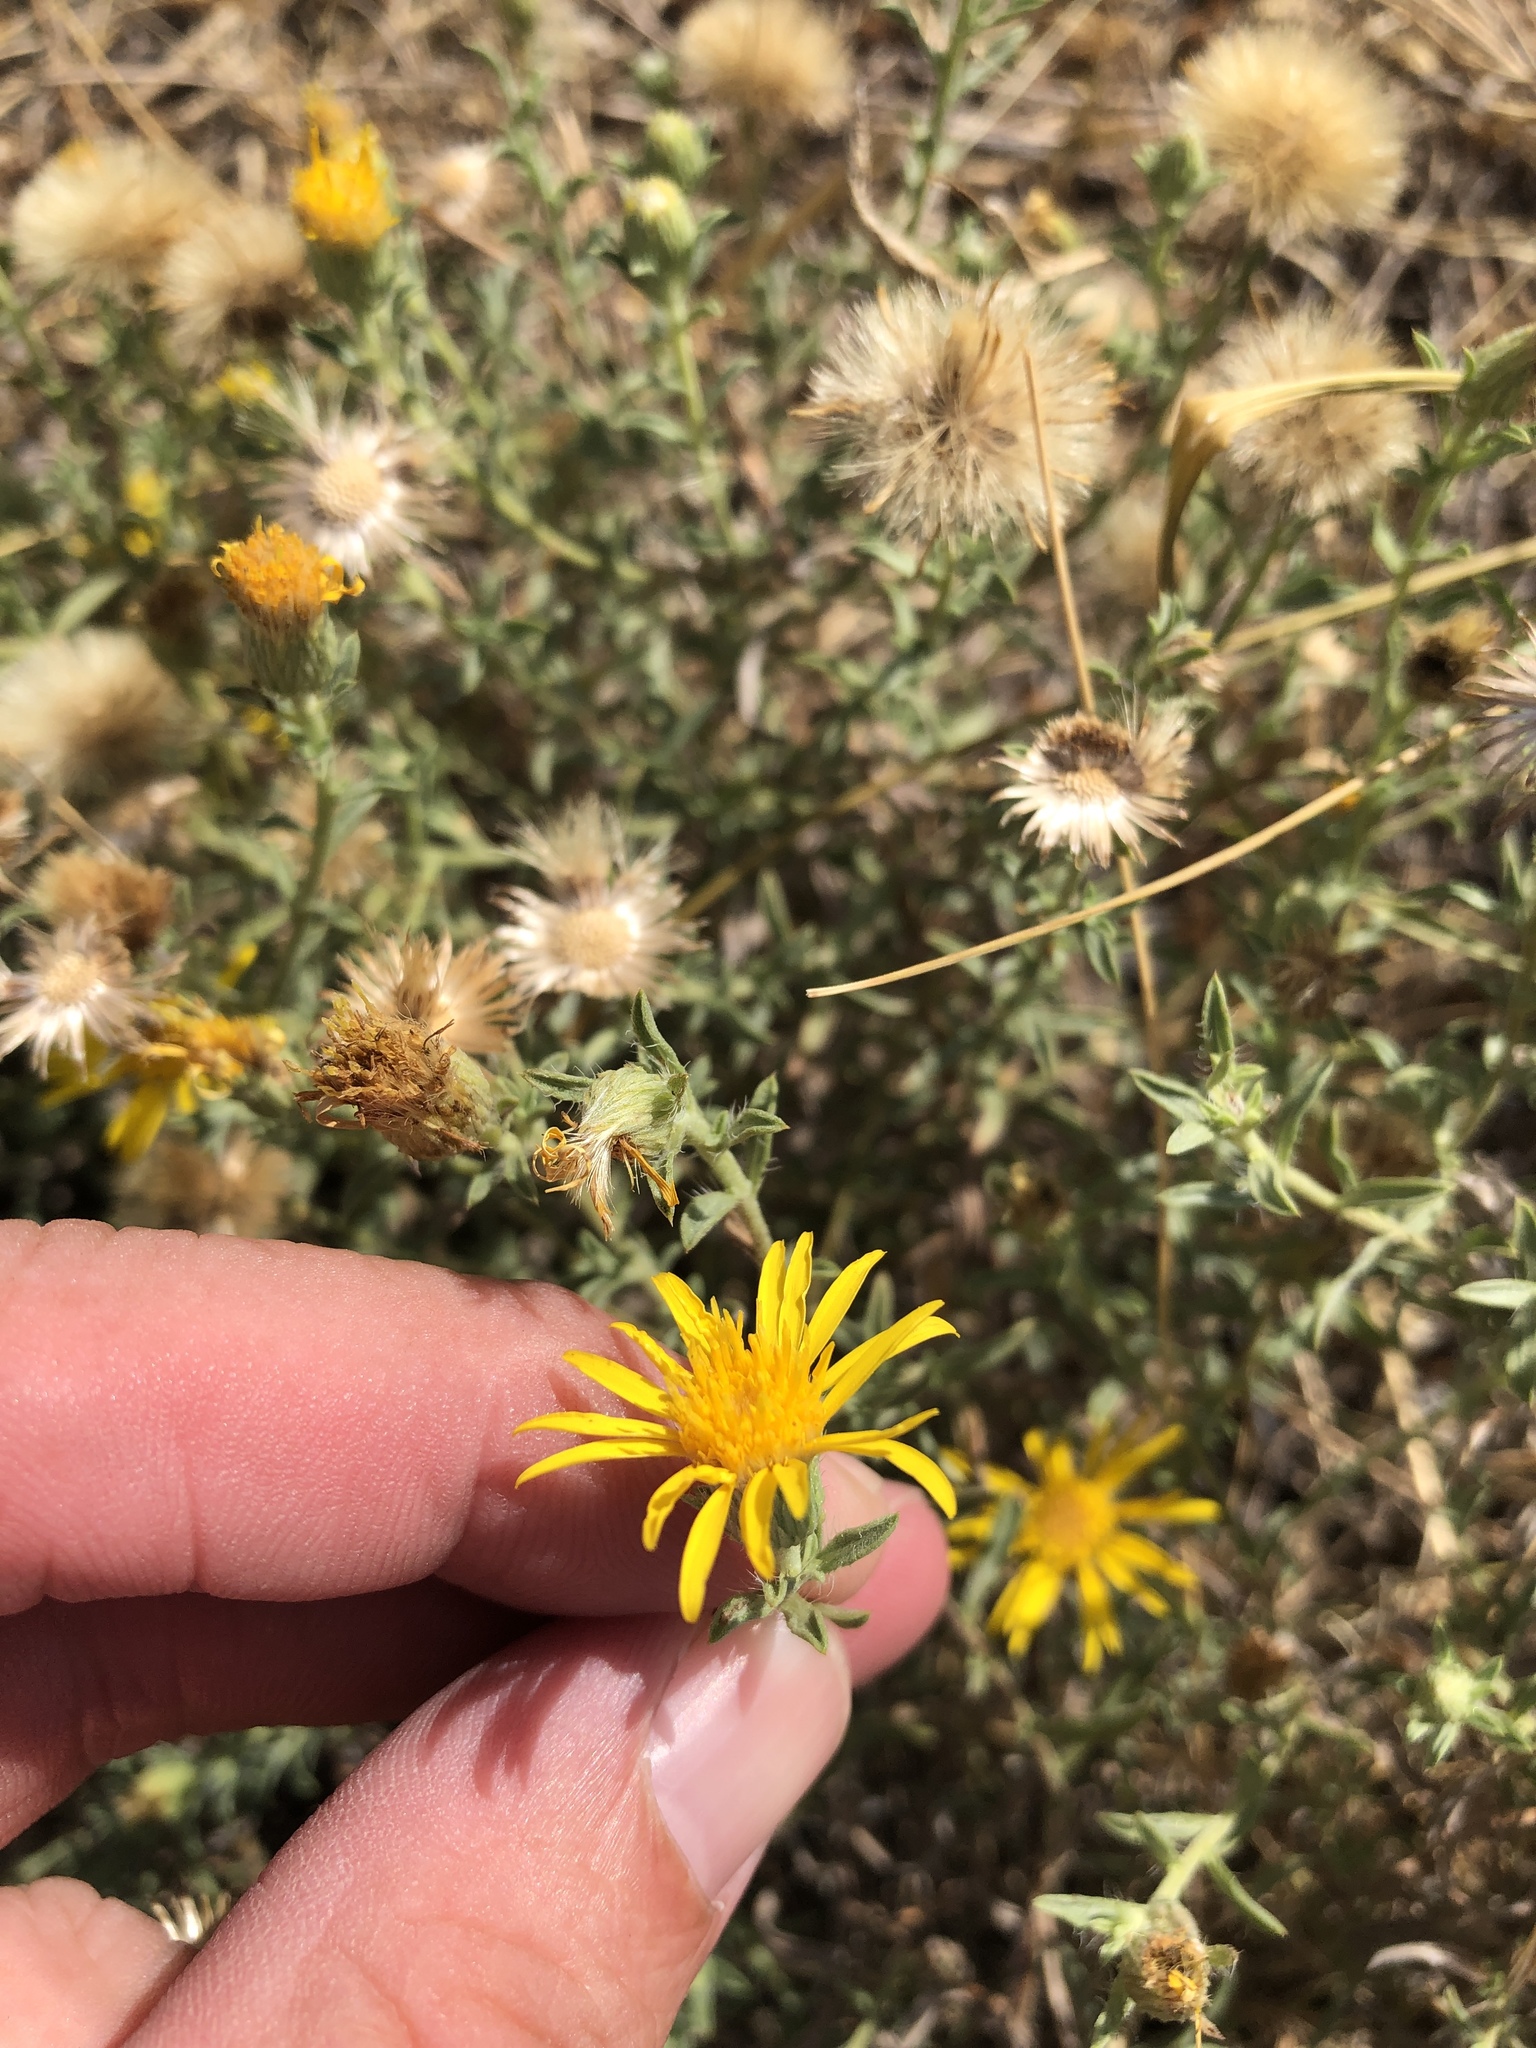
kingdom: Plantae
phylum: Tracheophyta
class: Magnoliopsida
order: Asterales
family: Asteraceae
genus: Heterotheca
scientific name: Heterotheca canescens
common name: Hoary golden-aster
